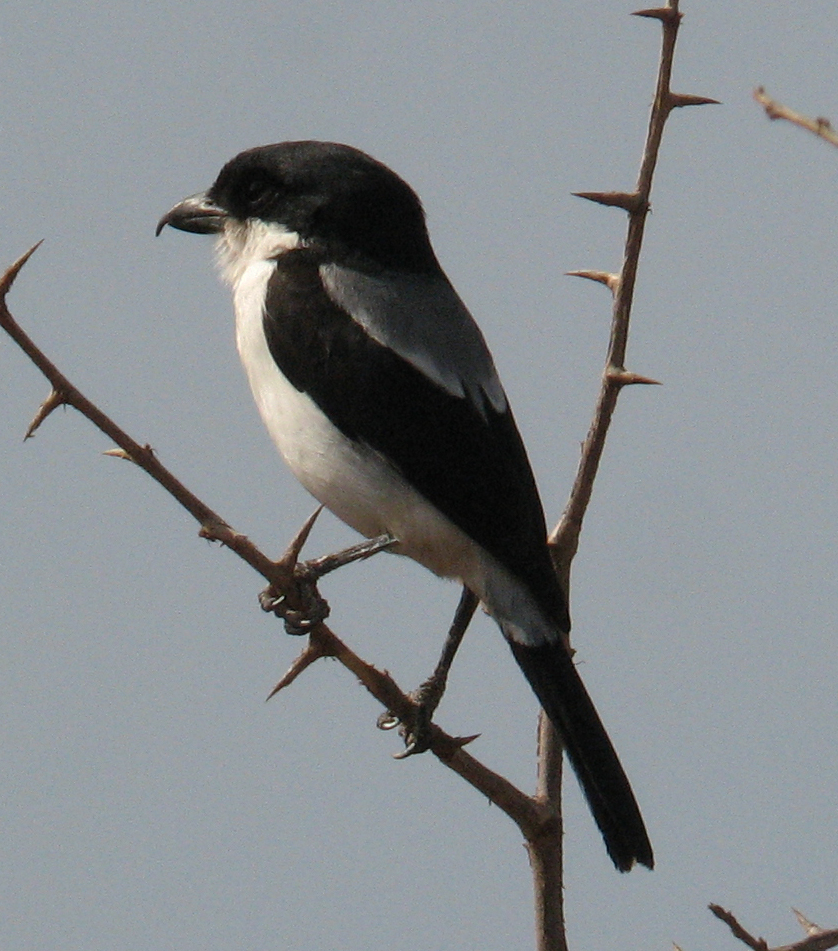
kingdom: Animalia
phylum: Chordata
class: Aves
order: Passeriformes
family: Laniidae
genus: Lanius
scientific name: Lanius dorsalis
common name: Taita fiscal
